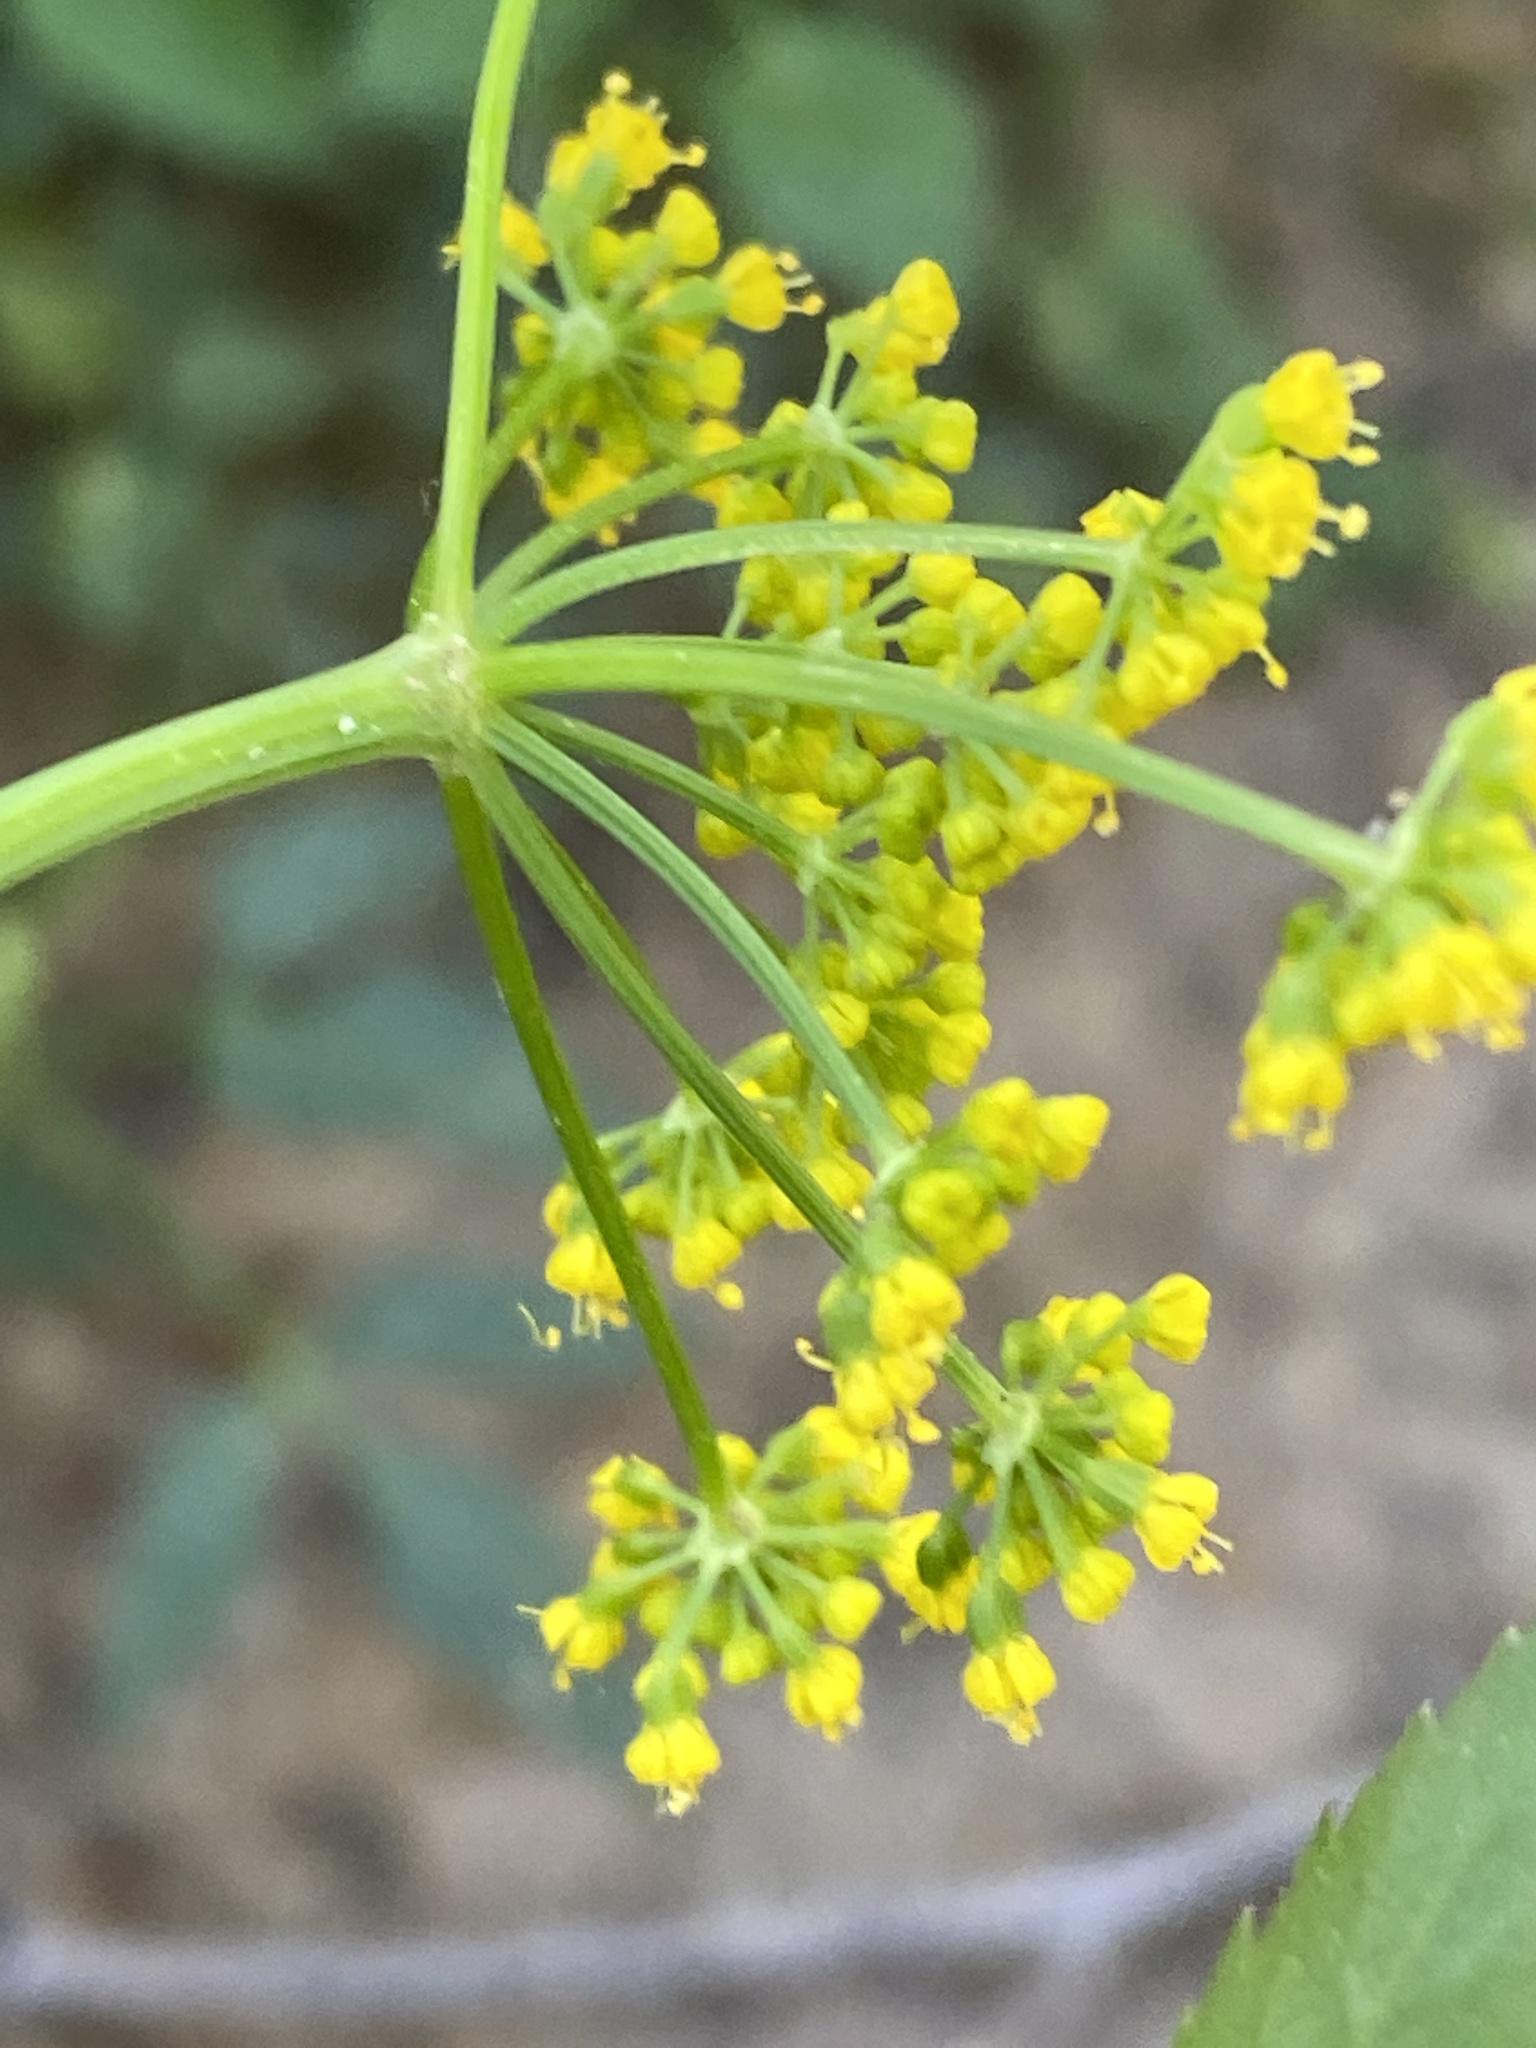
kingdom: Plantae
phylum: Tracheophyta
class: Magnoliopsida
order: Apiales
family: Apiaceae
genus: Zizia
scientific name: Zizia trifoliata
